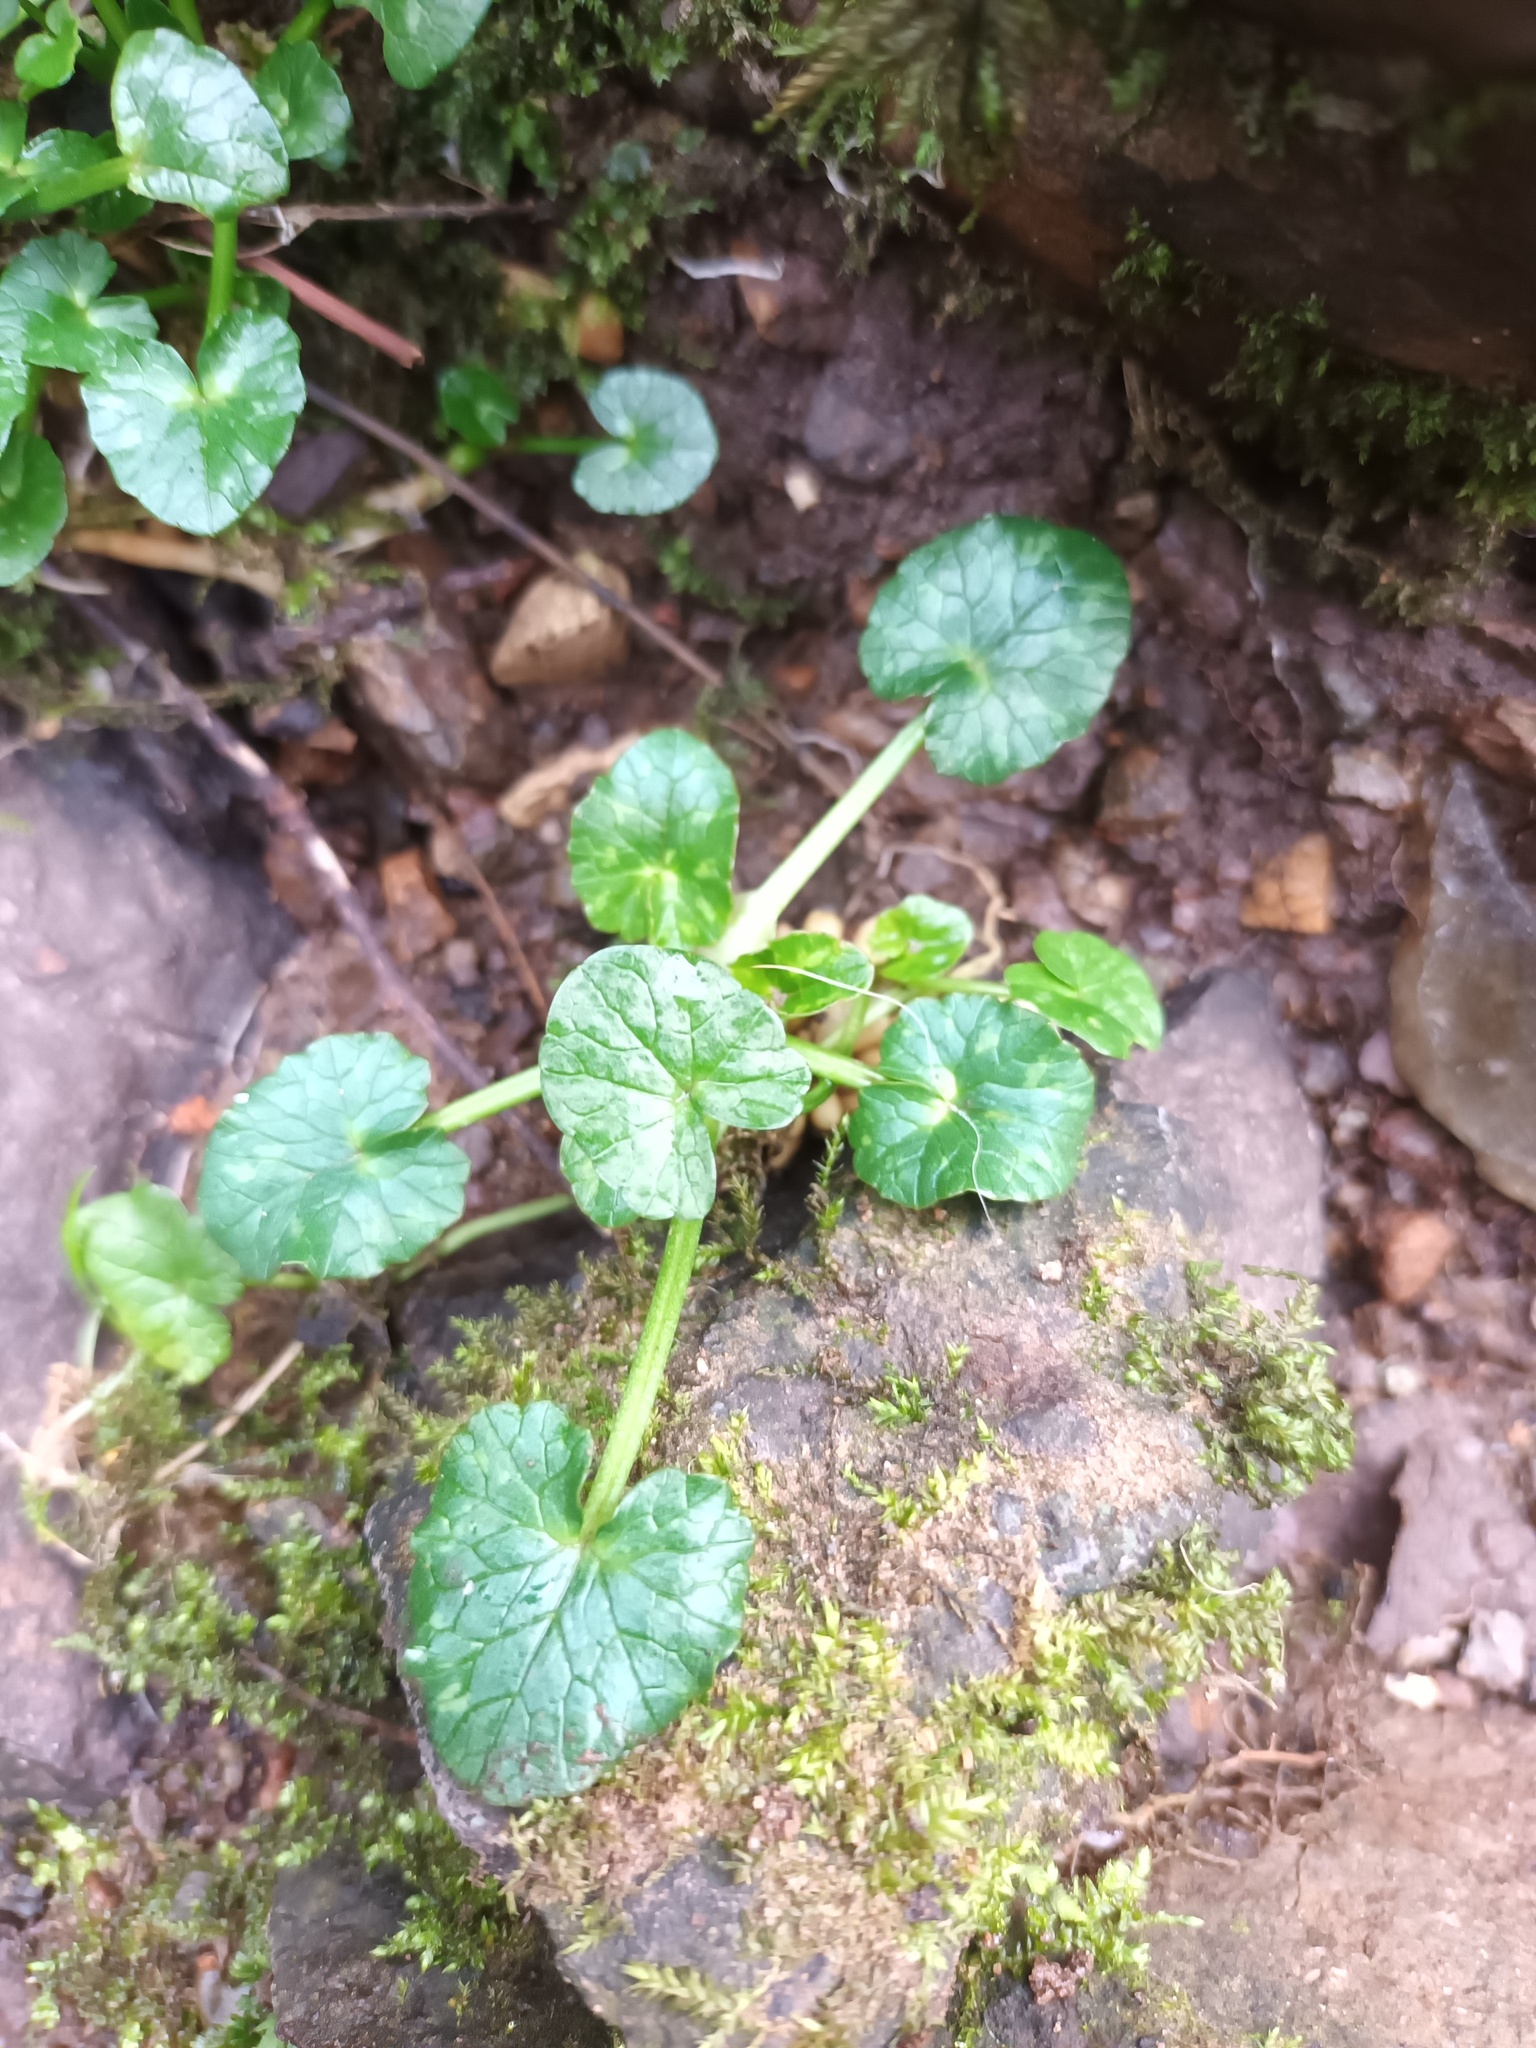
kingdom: Plantae
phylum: Tracheophyta
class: Magnoliopsida
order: Ranunculales
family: Ranunculaceae
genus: Ficaria
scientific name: Ficaria verna
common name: Lesser celandine
